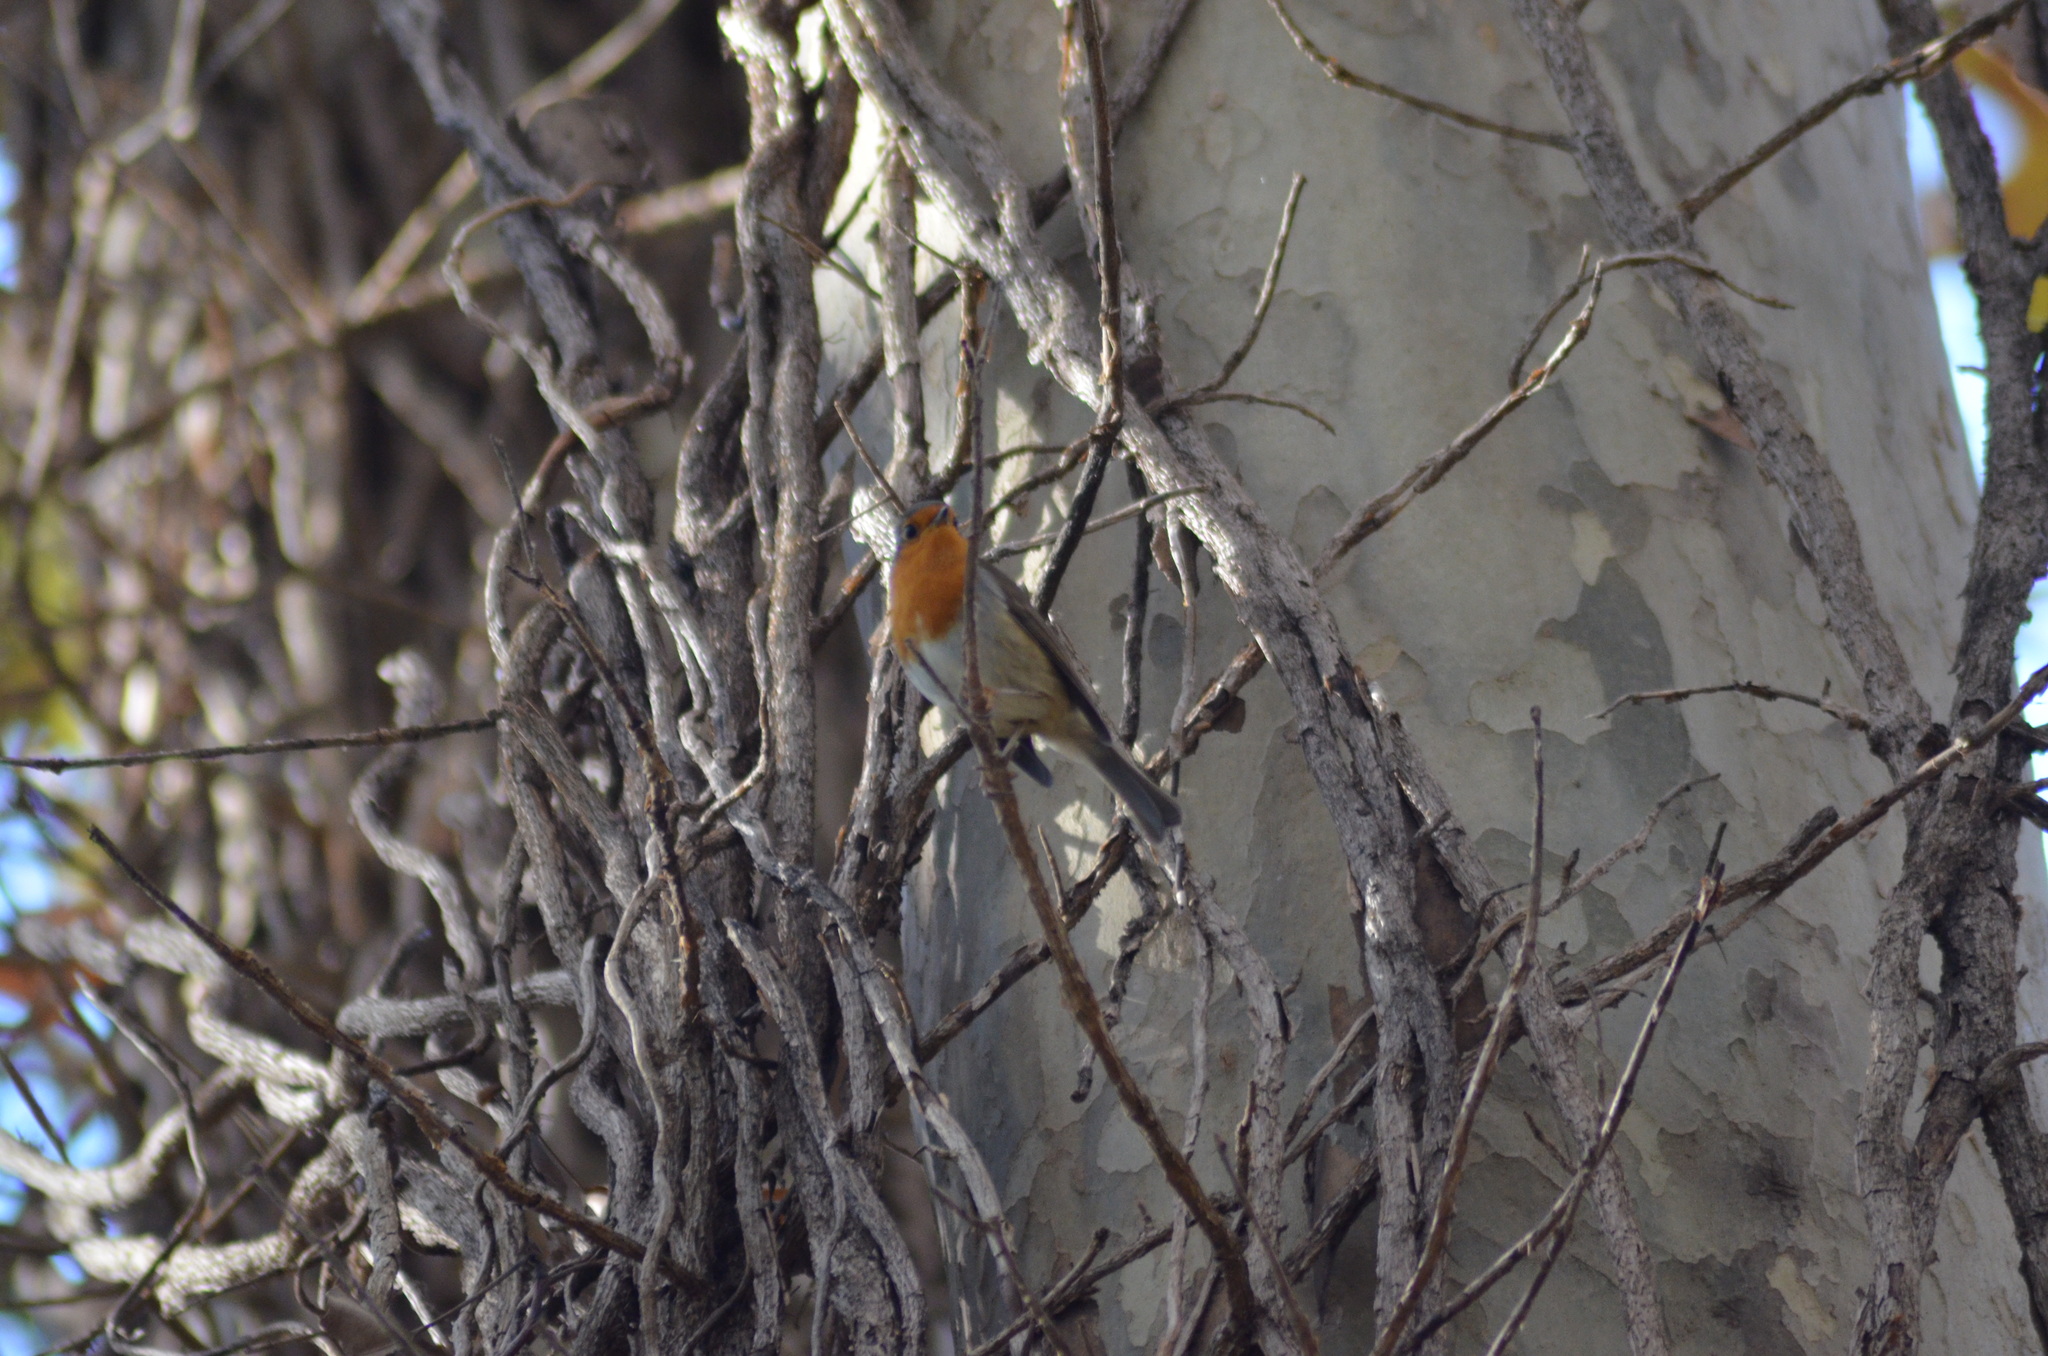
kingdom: Animalia
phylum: Chordata
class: Aves
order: Passeriformes
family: Muscicapidae
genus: Erithacus
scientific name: Erithacus rubecula
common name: European robin
